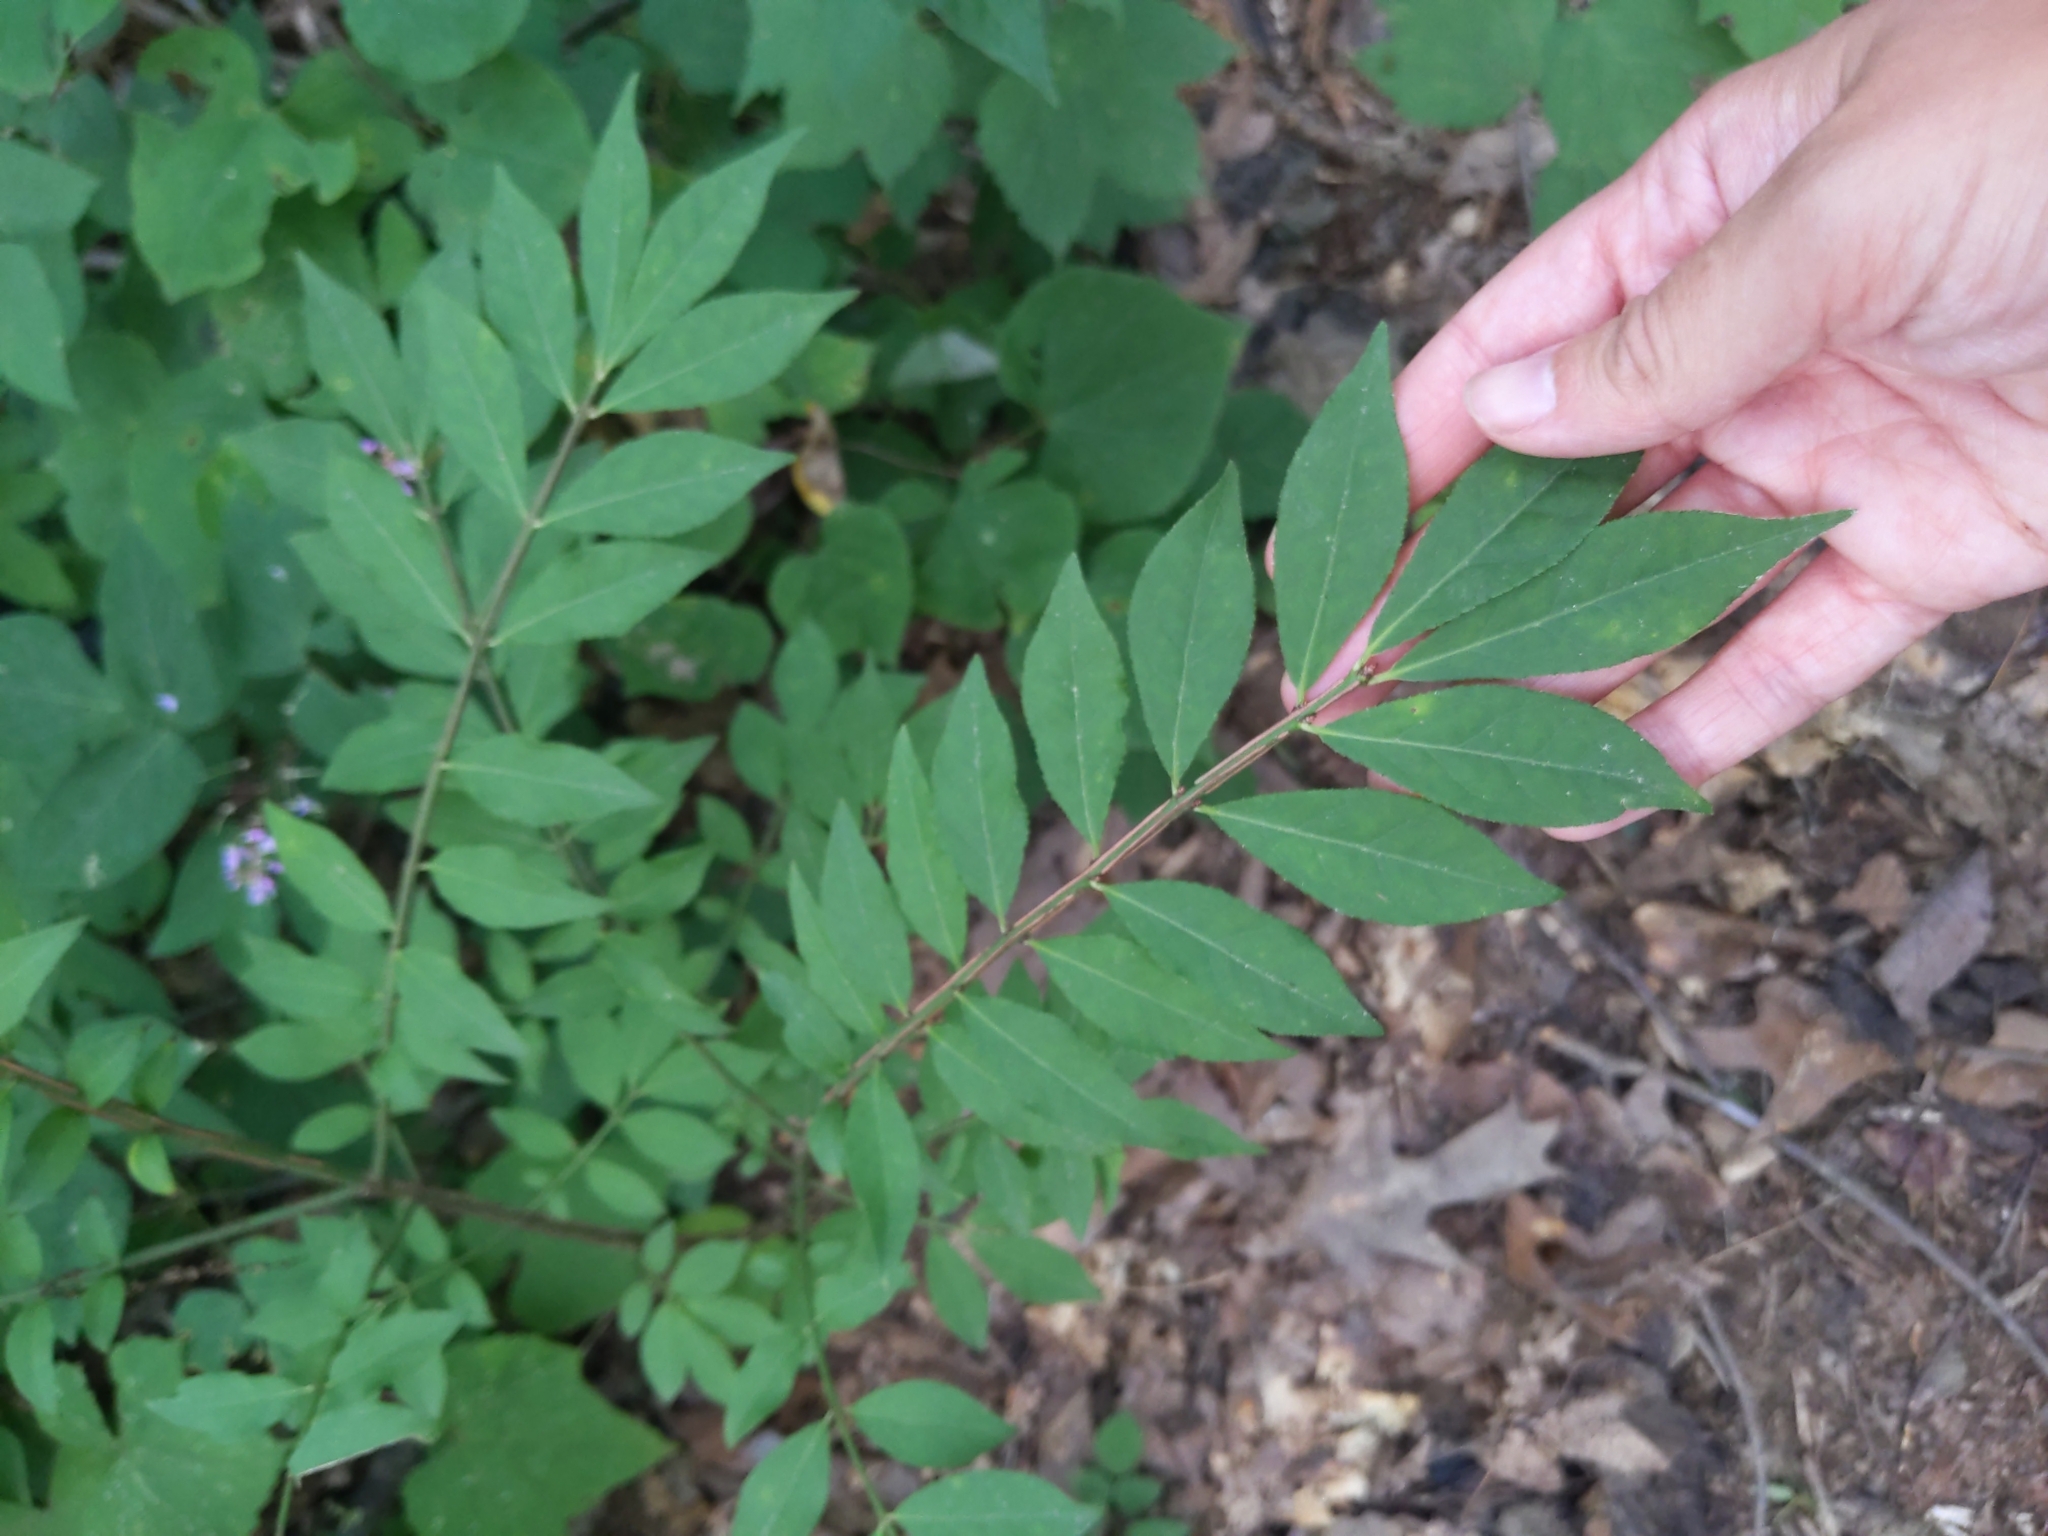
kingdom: Plantae
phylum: Tracheophyta
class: Magnoliopsida
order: Celastrales
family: Celastraceae
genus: Euonymus
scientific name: Euonymus alatus
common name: Winged euonymus
